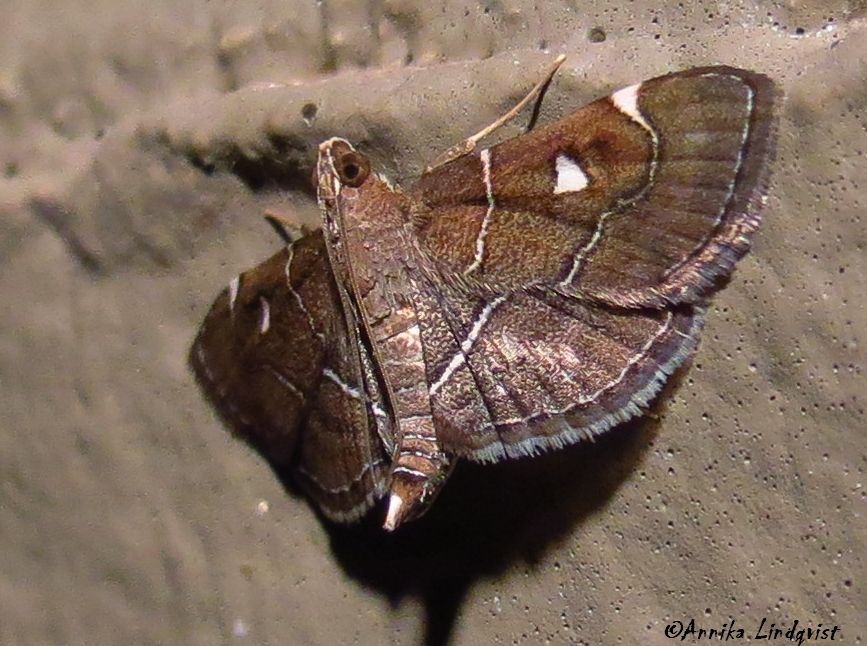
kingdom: Animalia
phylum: Arthropoda
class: Insecta
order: Lepidoptera
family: Crambidae
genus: Lamprosema
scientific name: Lamprosema victoriae
